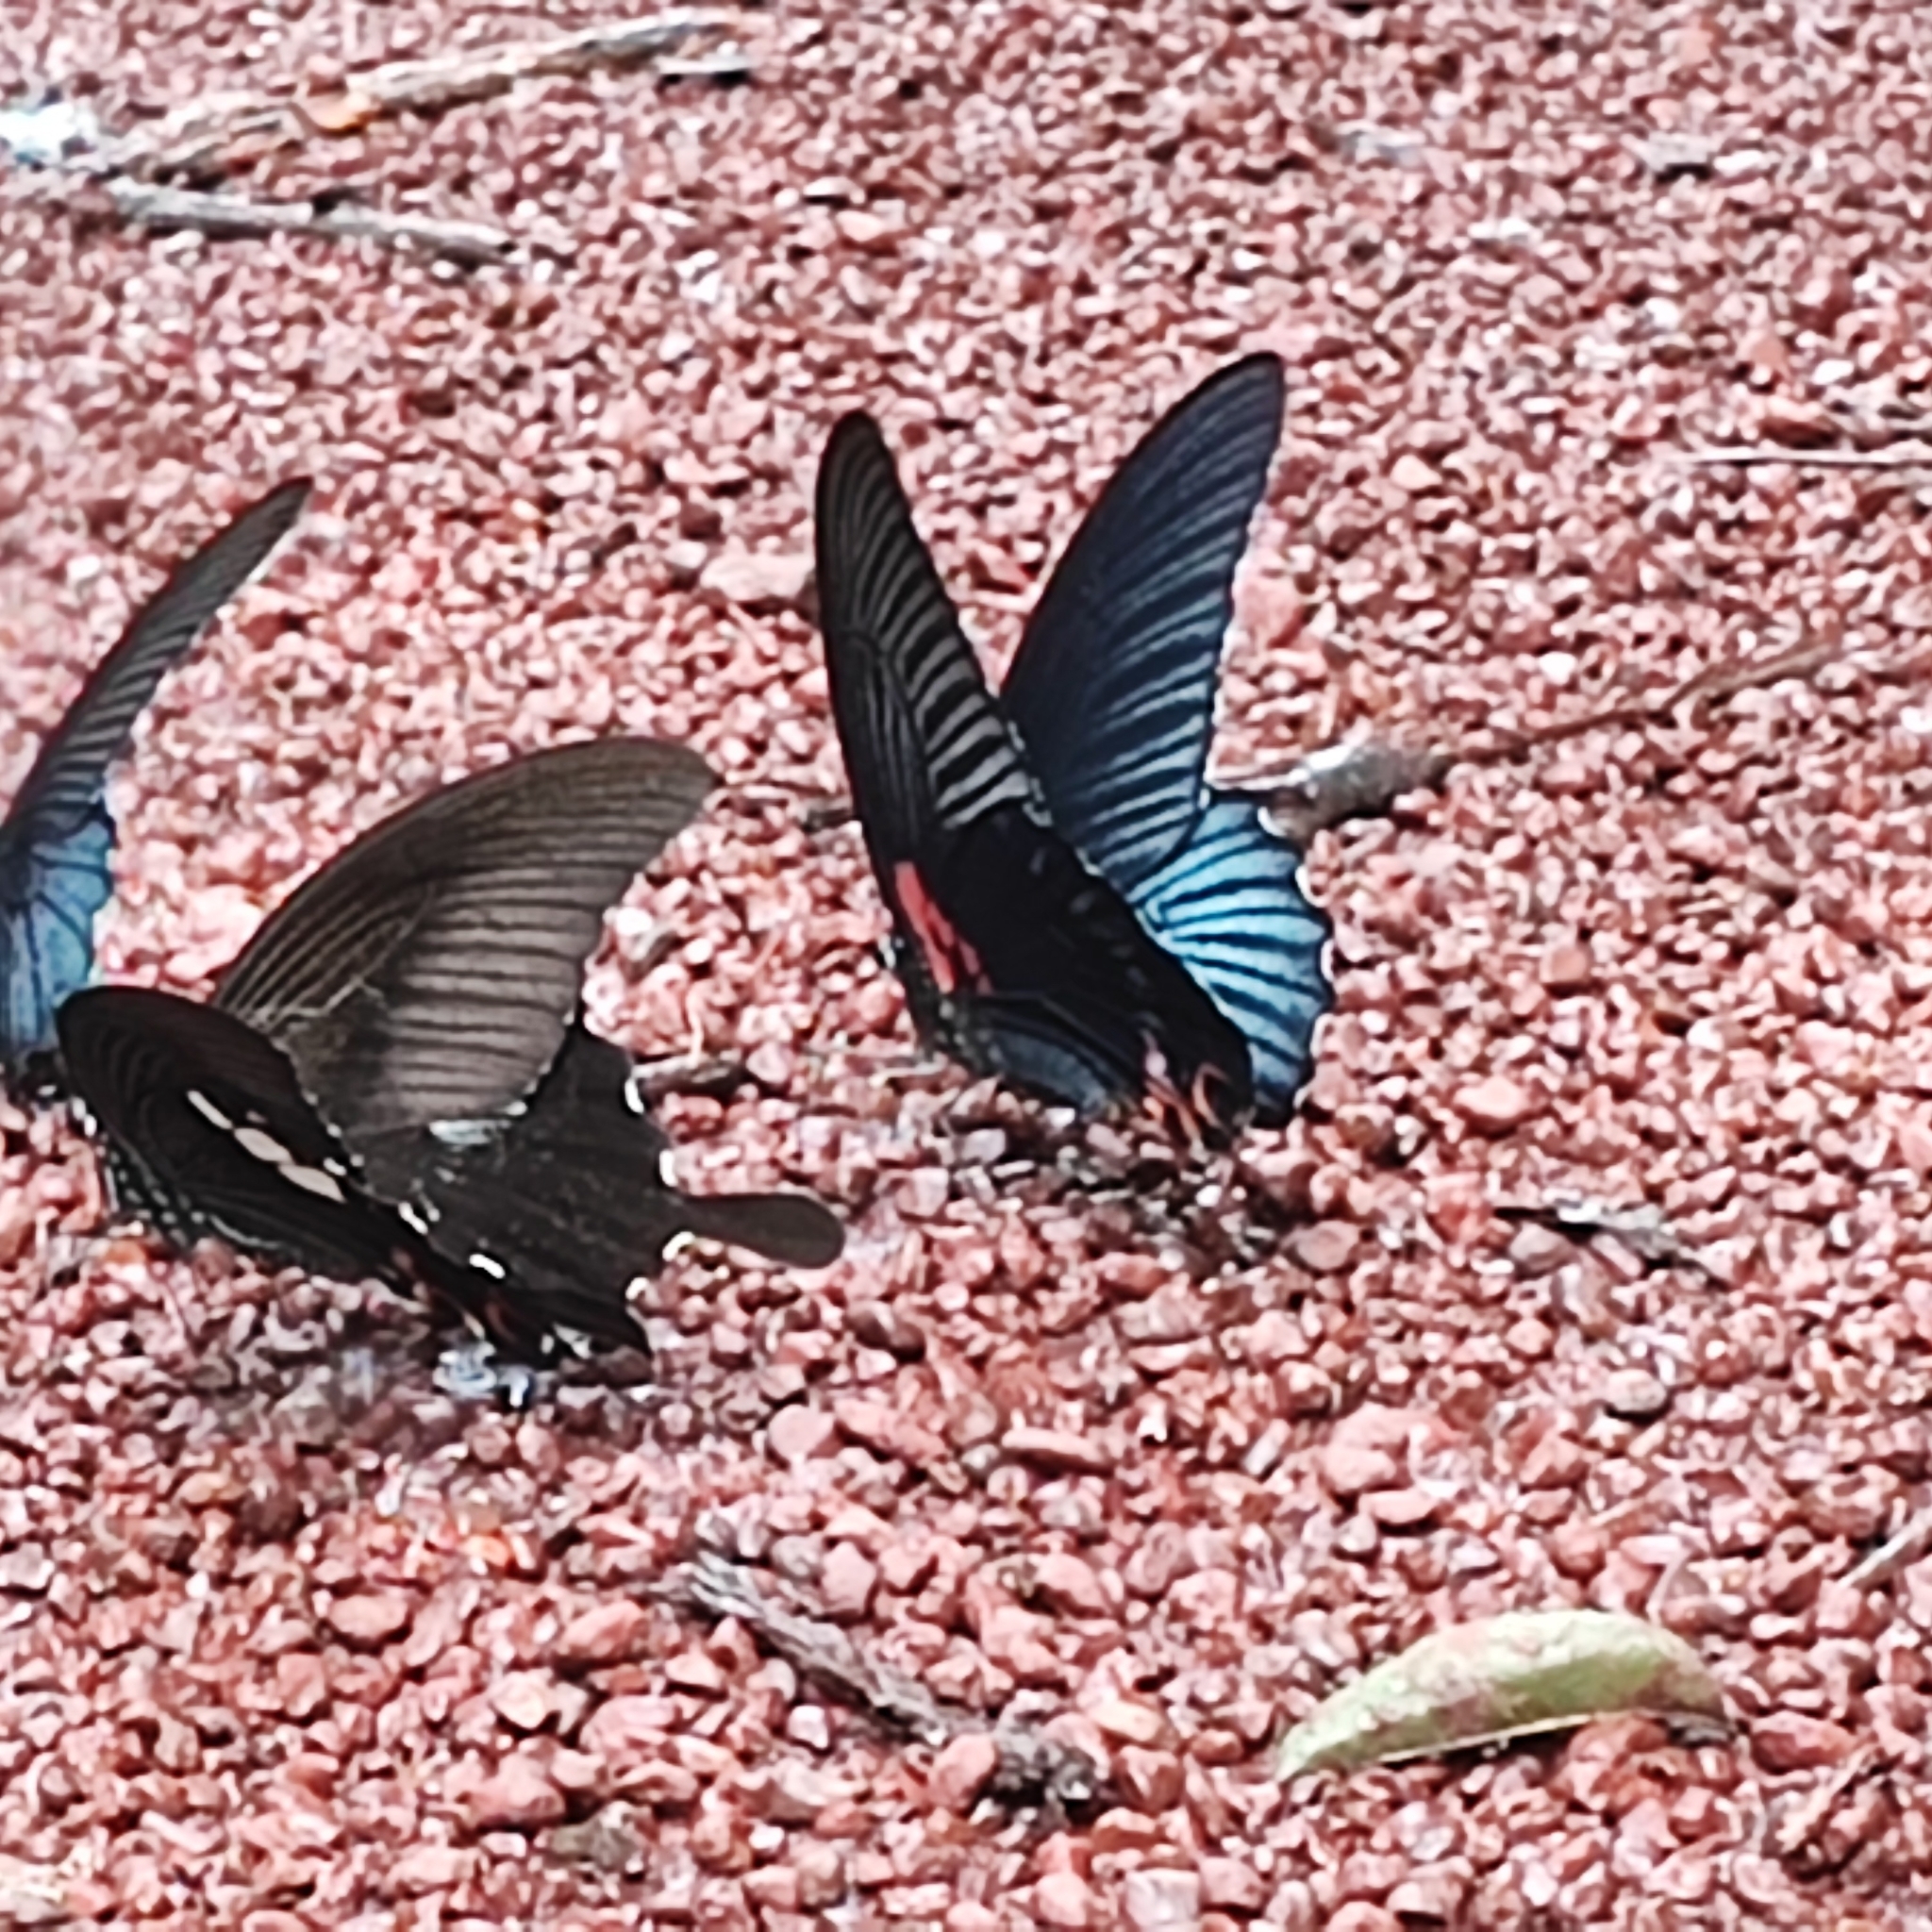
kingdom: Animalia
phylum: Arthropoda
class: Insecta
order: Lepidoptera
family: Papilionidae
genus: Papilio
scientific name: Papilio memnon
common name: Great mormon
